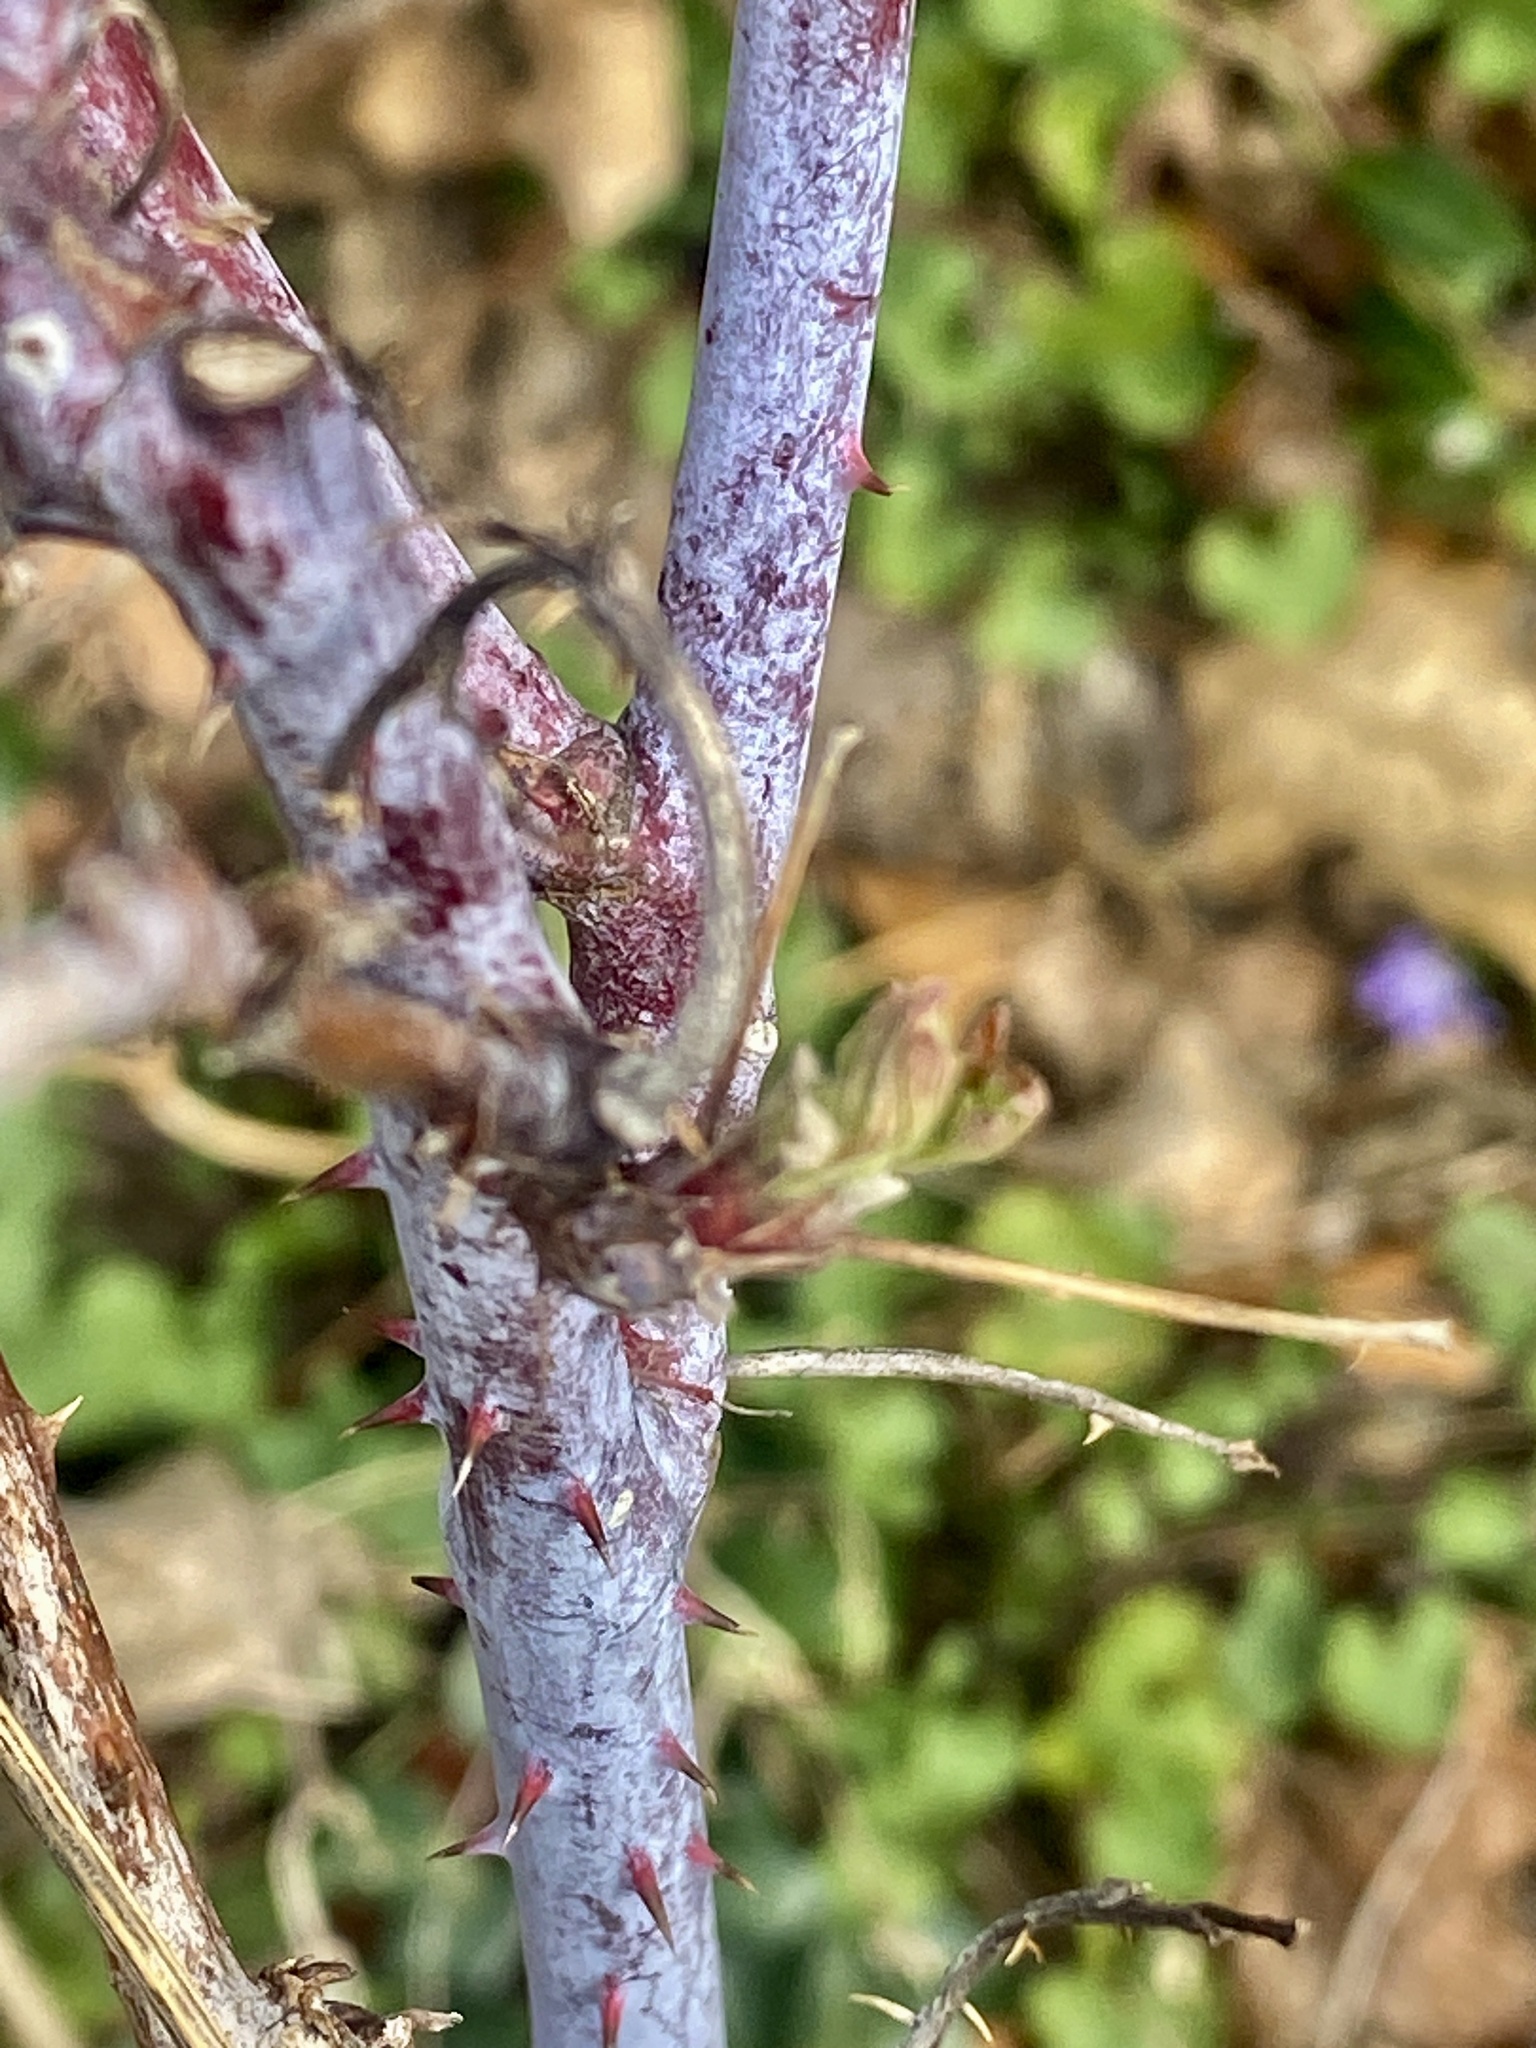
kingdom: Plantae
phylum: Tracheophyta
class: Magnoliopsida
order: Rosales
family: Rosaceae
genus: Rubus
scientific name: Rubus occidentalis
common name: Black raspberry
